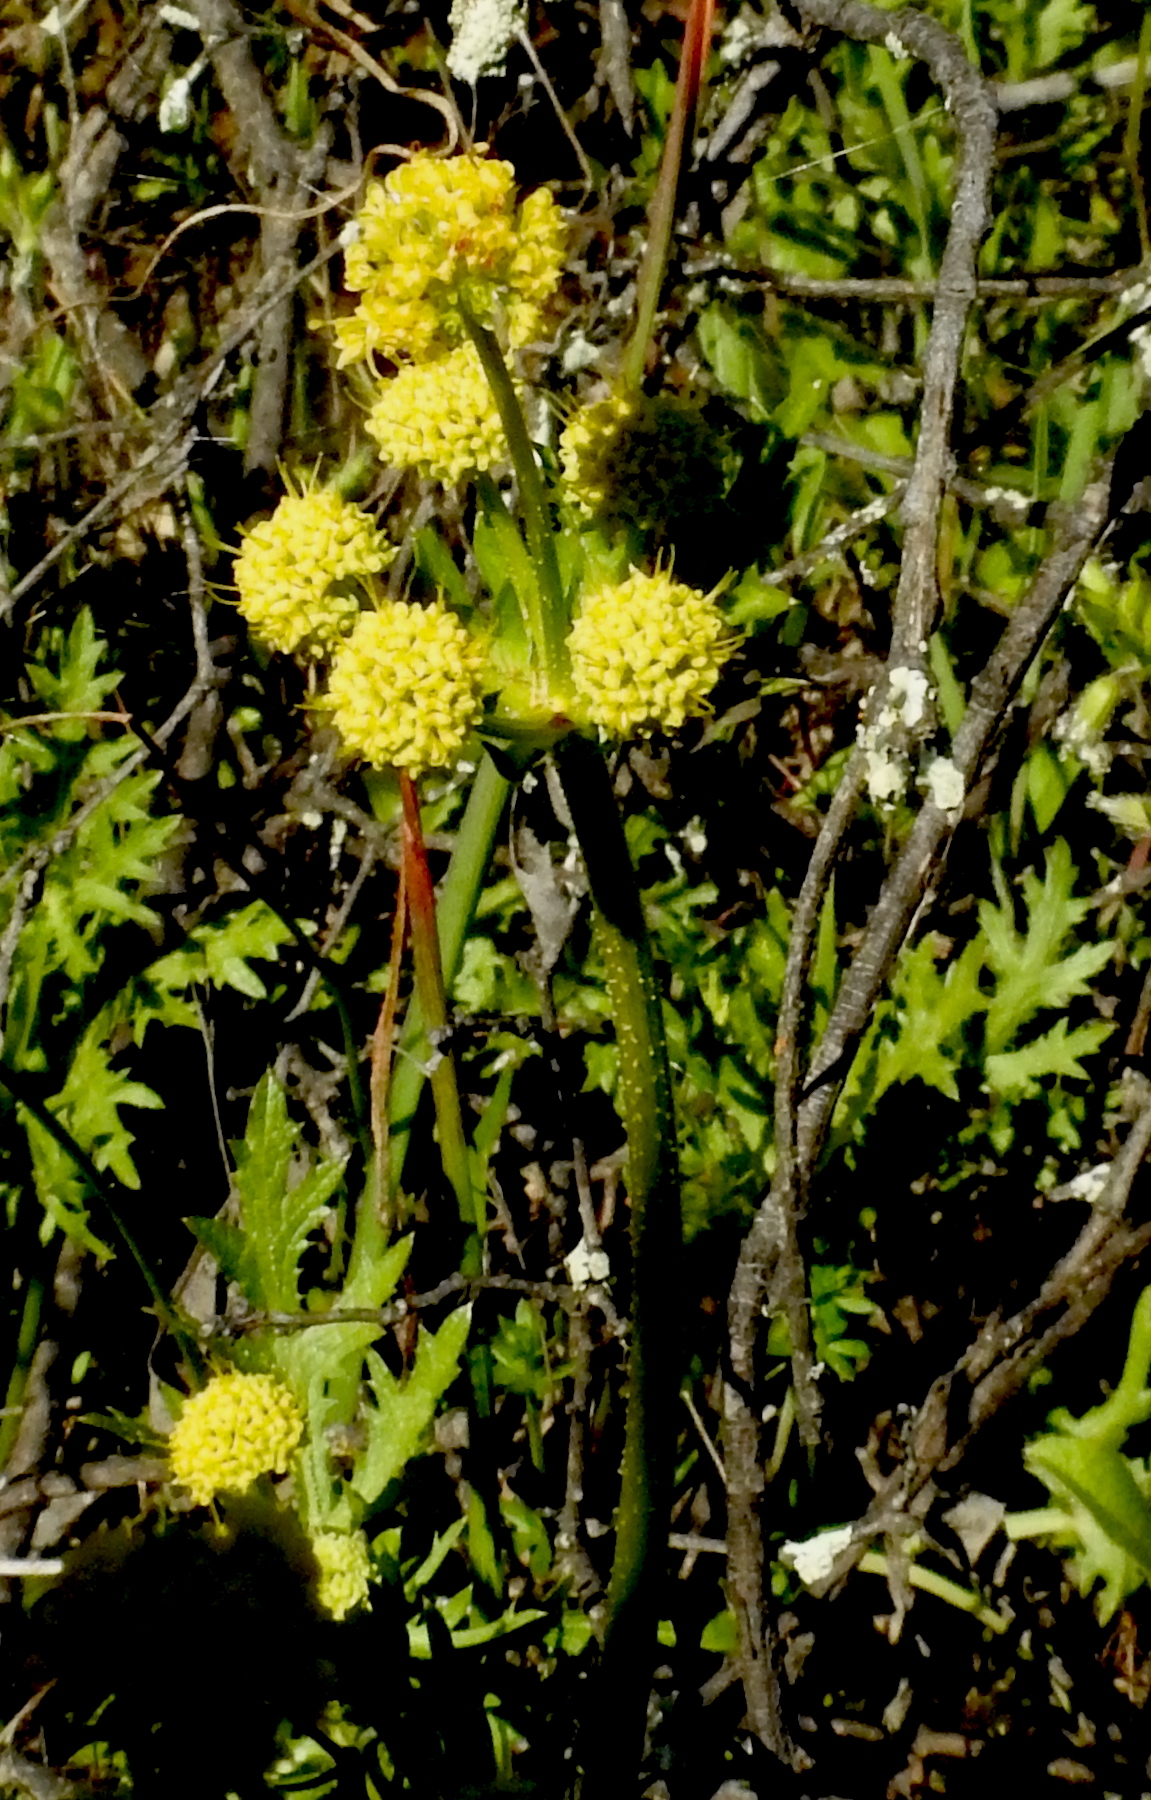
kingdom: Plantae
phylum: Tracheophyta
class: Magnoliopsida
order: Apiales
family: Apiaceae
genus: Sanicula
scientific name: Sanicula arguta
